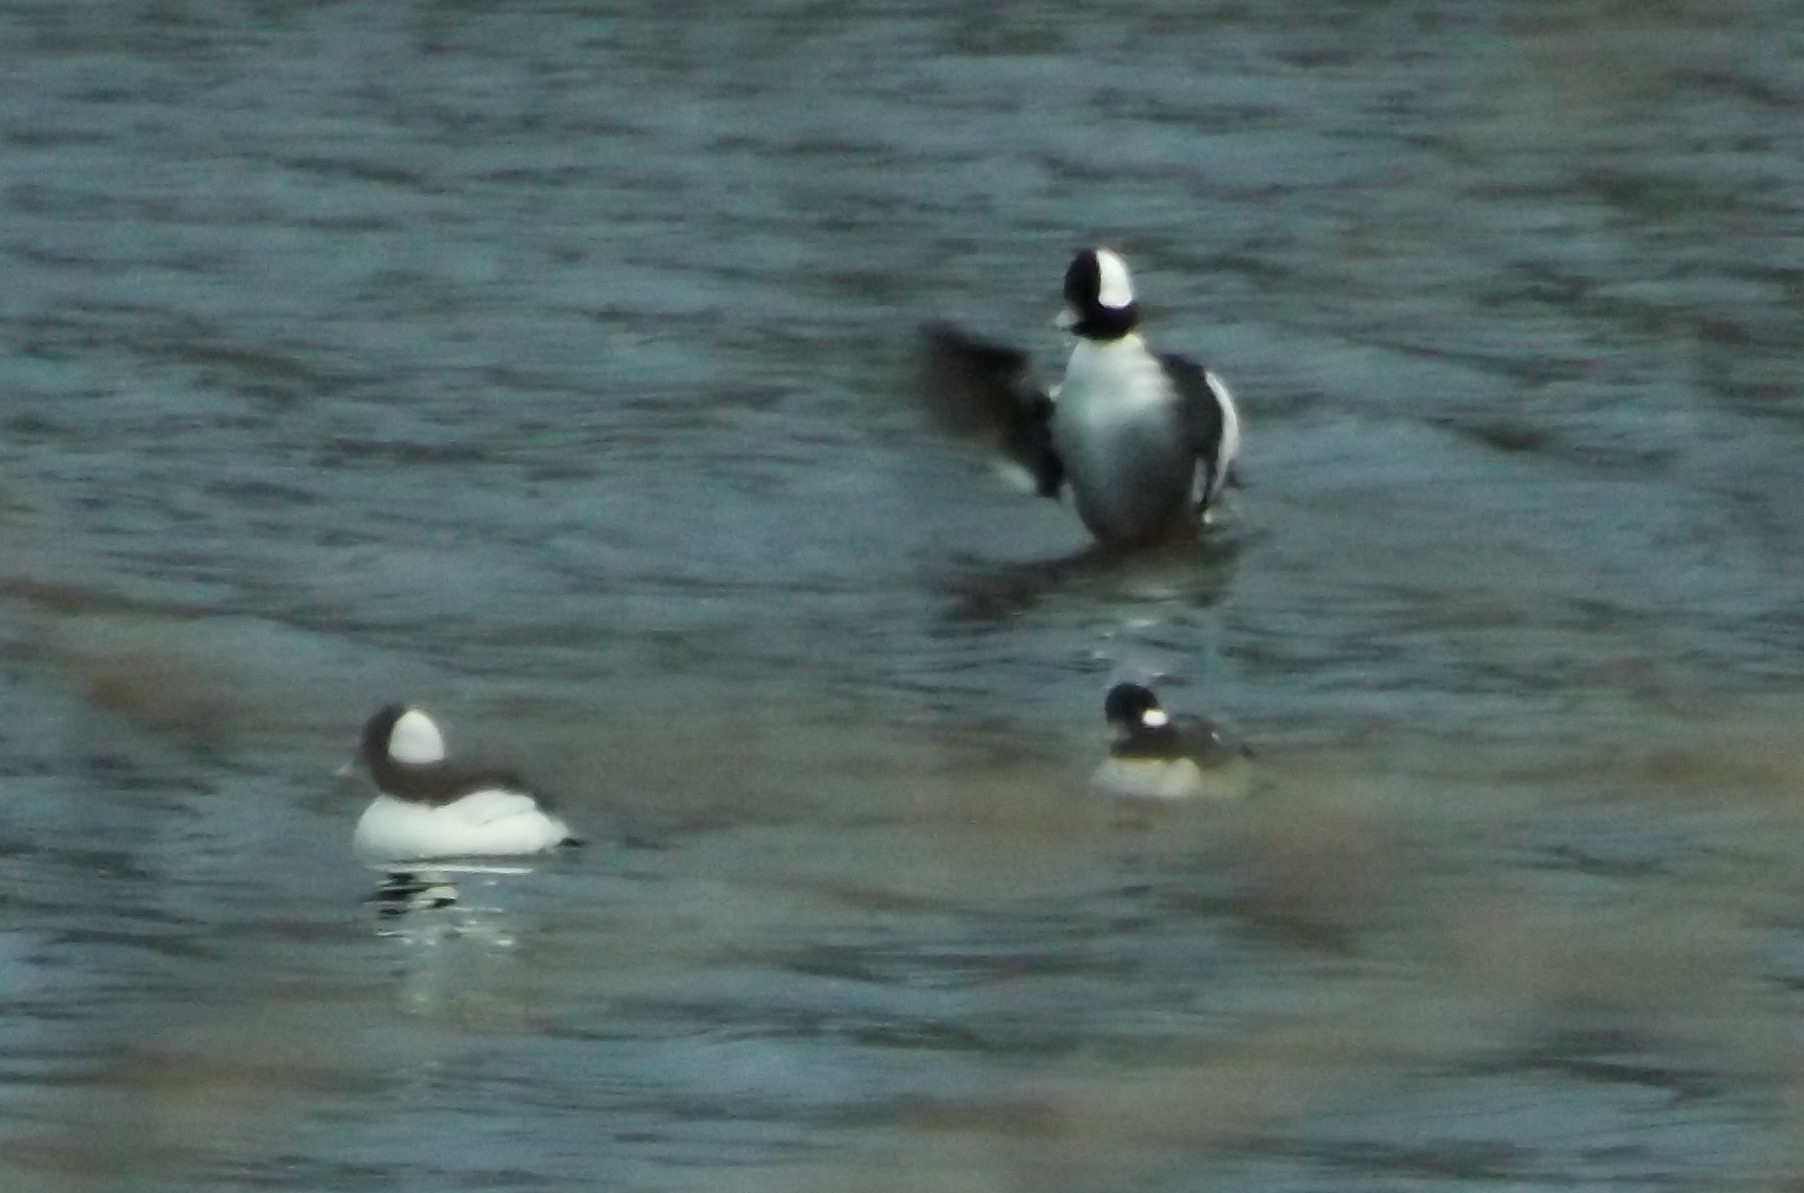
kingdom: Animalia
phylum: Chordata
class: Aves
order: Anseriformes
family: Anatidae
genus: Bucephala
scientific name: Bucephala albeola
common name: Bufflehead
